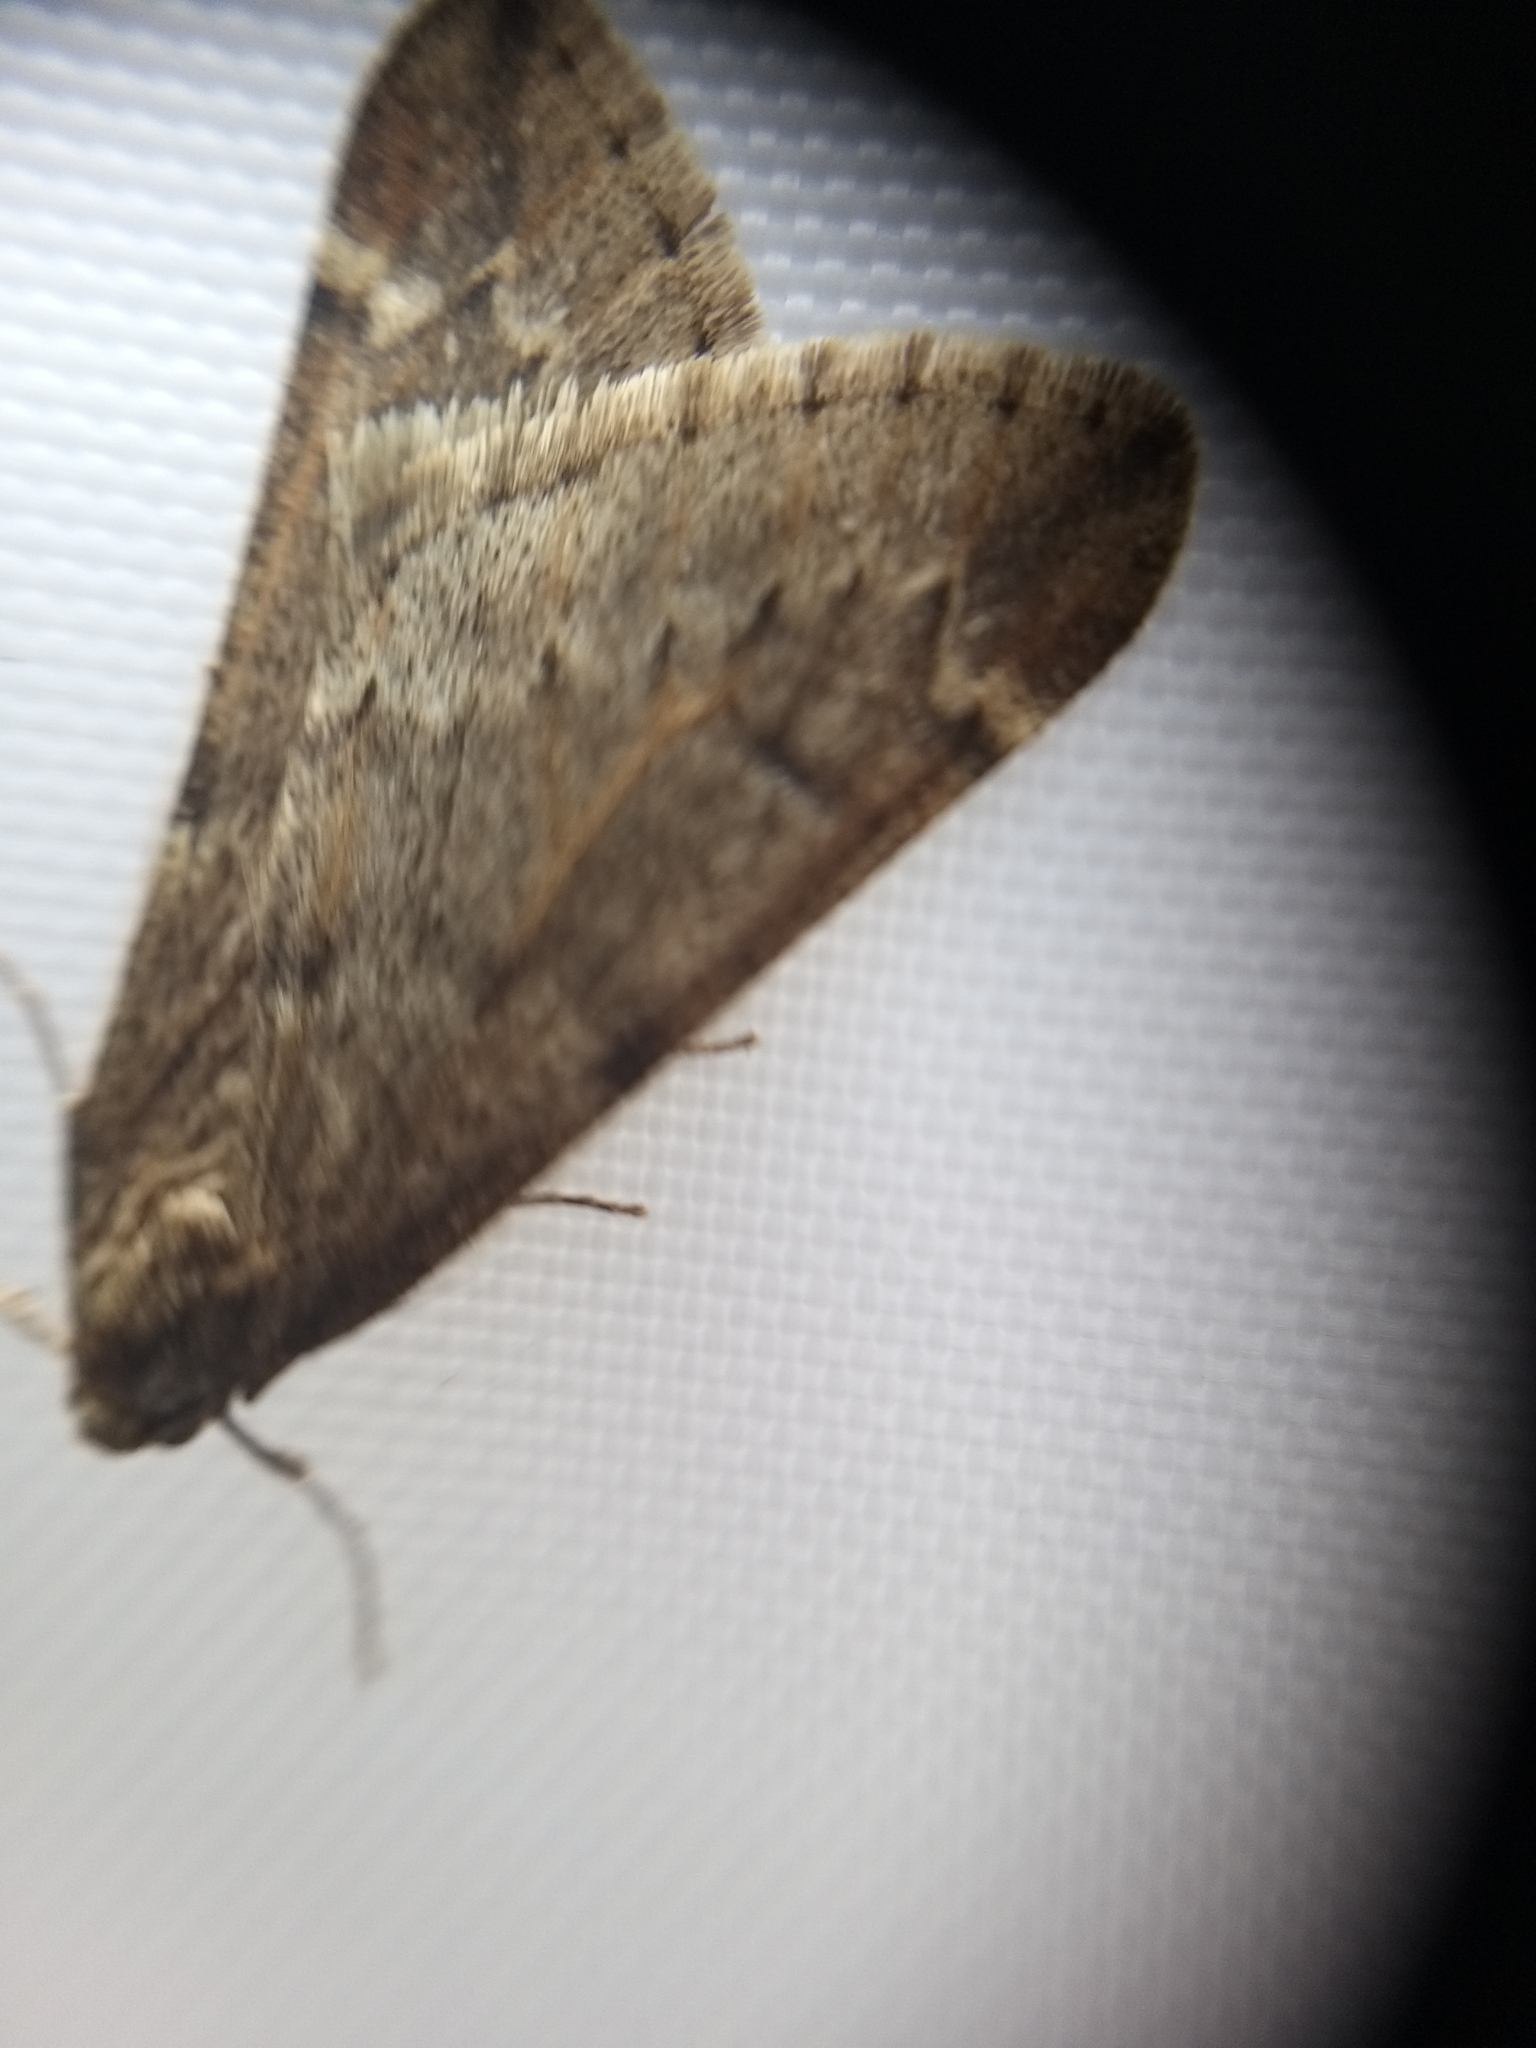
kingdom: Animalia
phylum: Arthropoda
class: Insecta
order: Lepidoptera
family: Geometridae
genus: Alsophila
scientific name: Alsophila aescularia
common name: March moth
